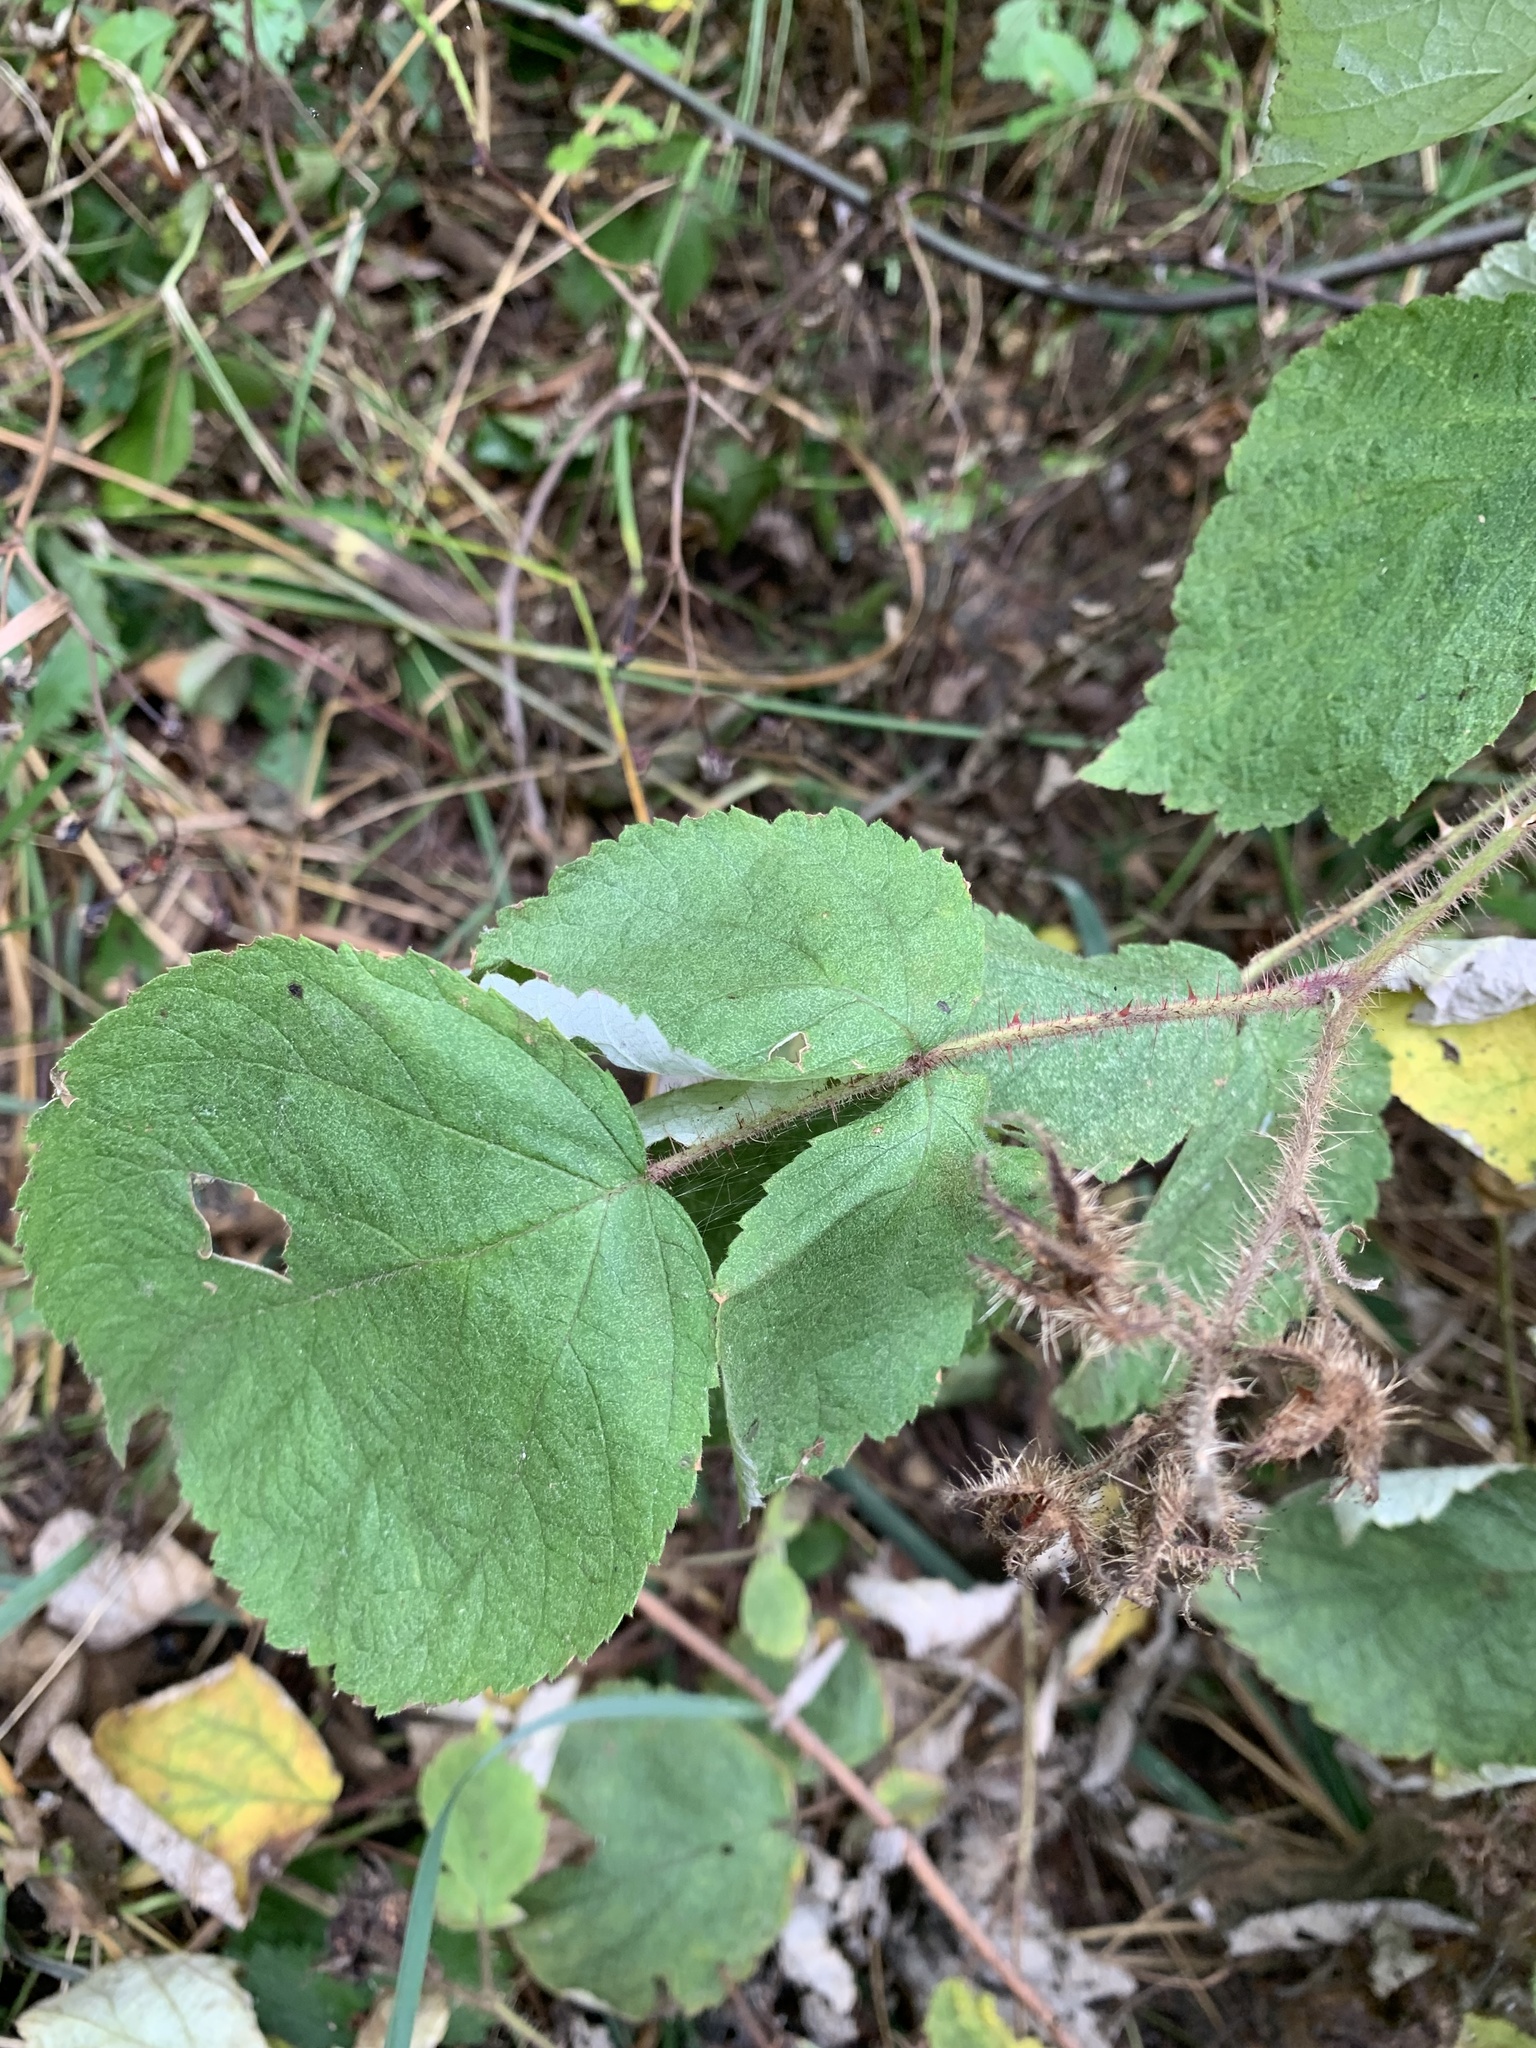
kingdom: Plantae
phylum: Tracheophyta
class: Magnoliopsida
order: Rosales
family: Rosaceae
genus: Rubus
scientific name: Rubus phoenicolasius
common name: Japanese wineberry
